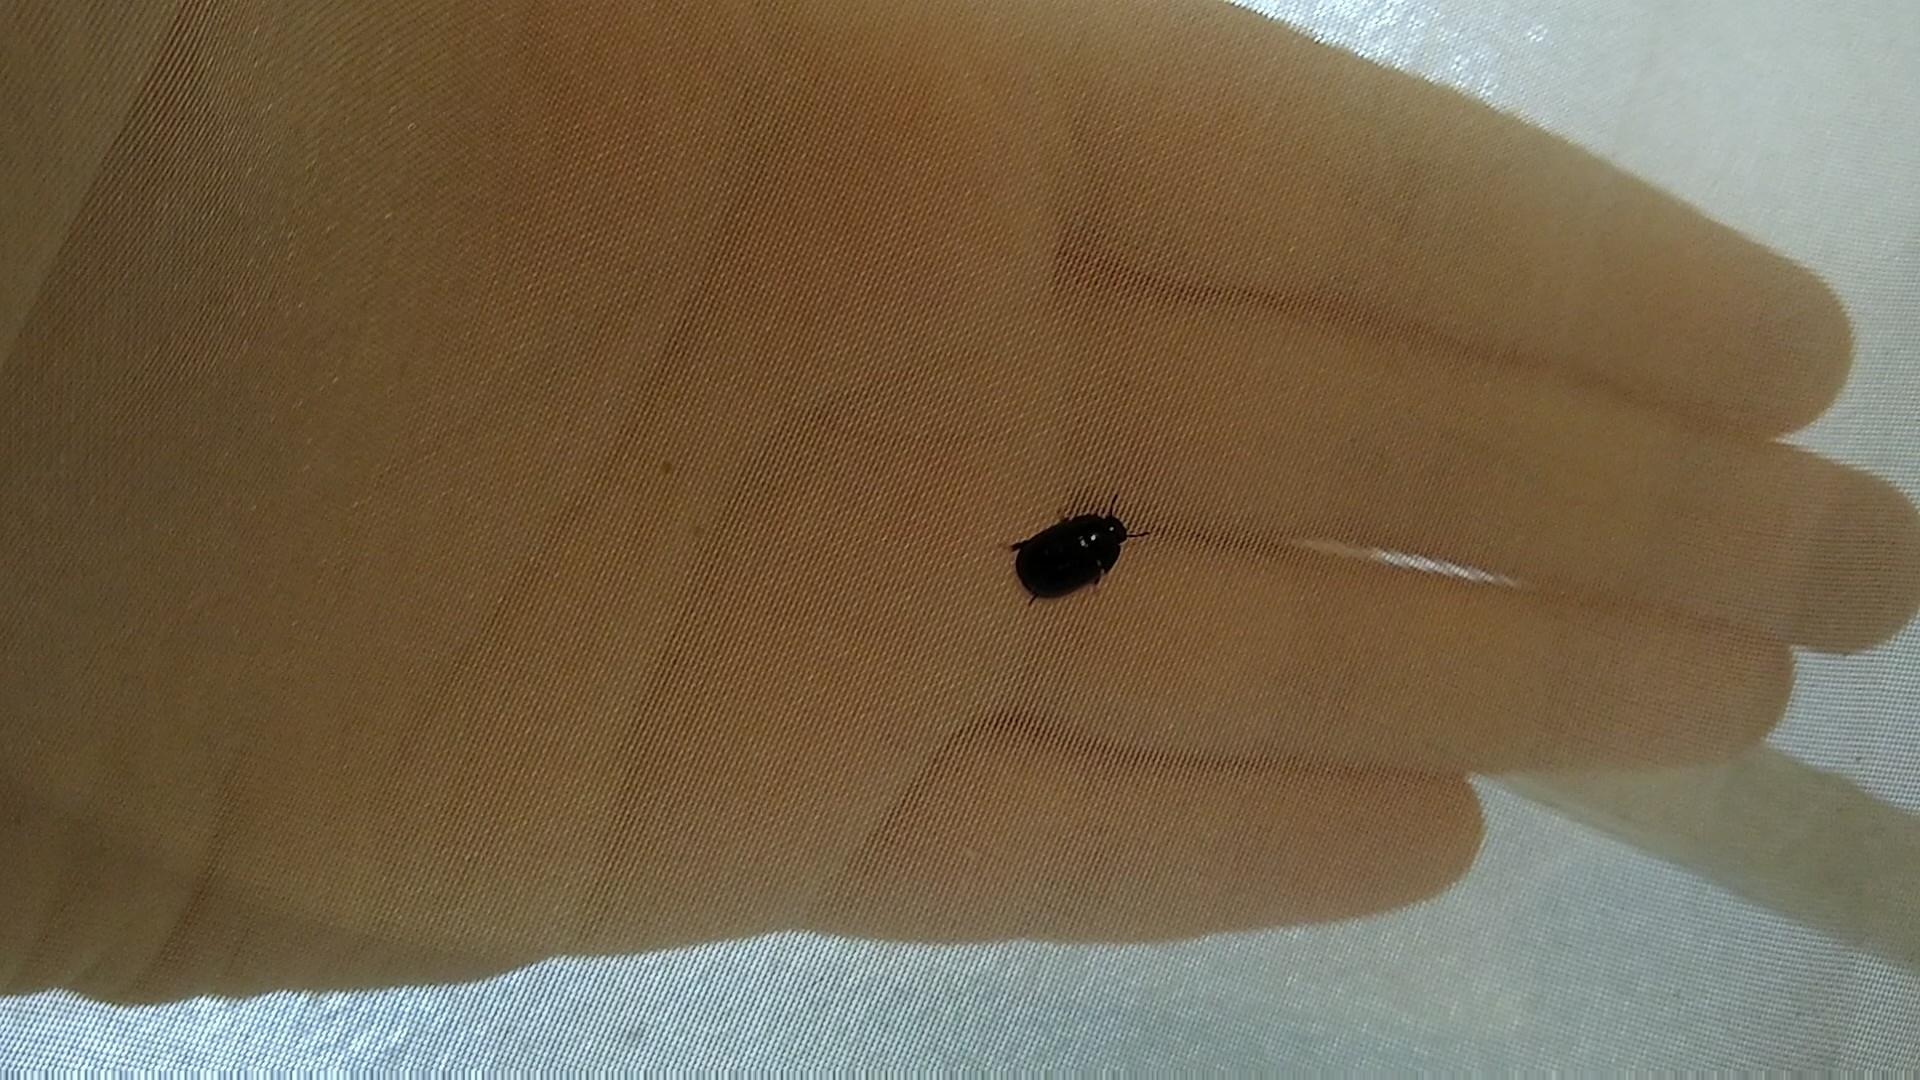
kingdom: Animalia
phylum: Arthropoda
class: Insecta
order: Coleoptera
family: Hydrophilidae
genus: Dactylosternum
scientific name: Dactylosternum
